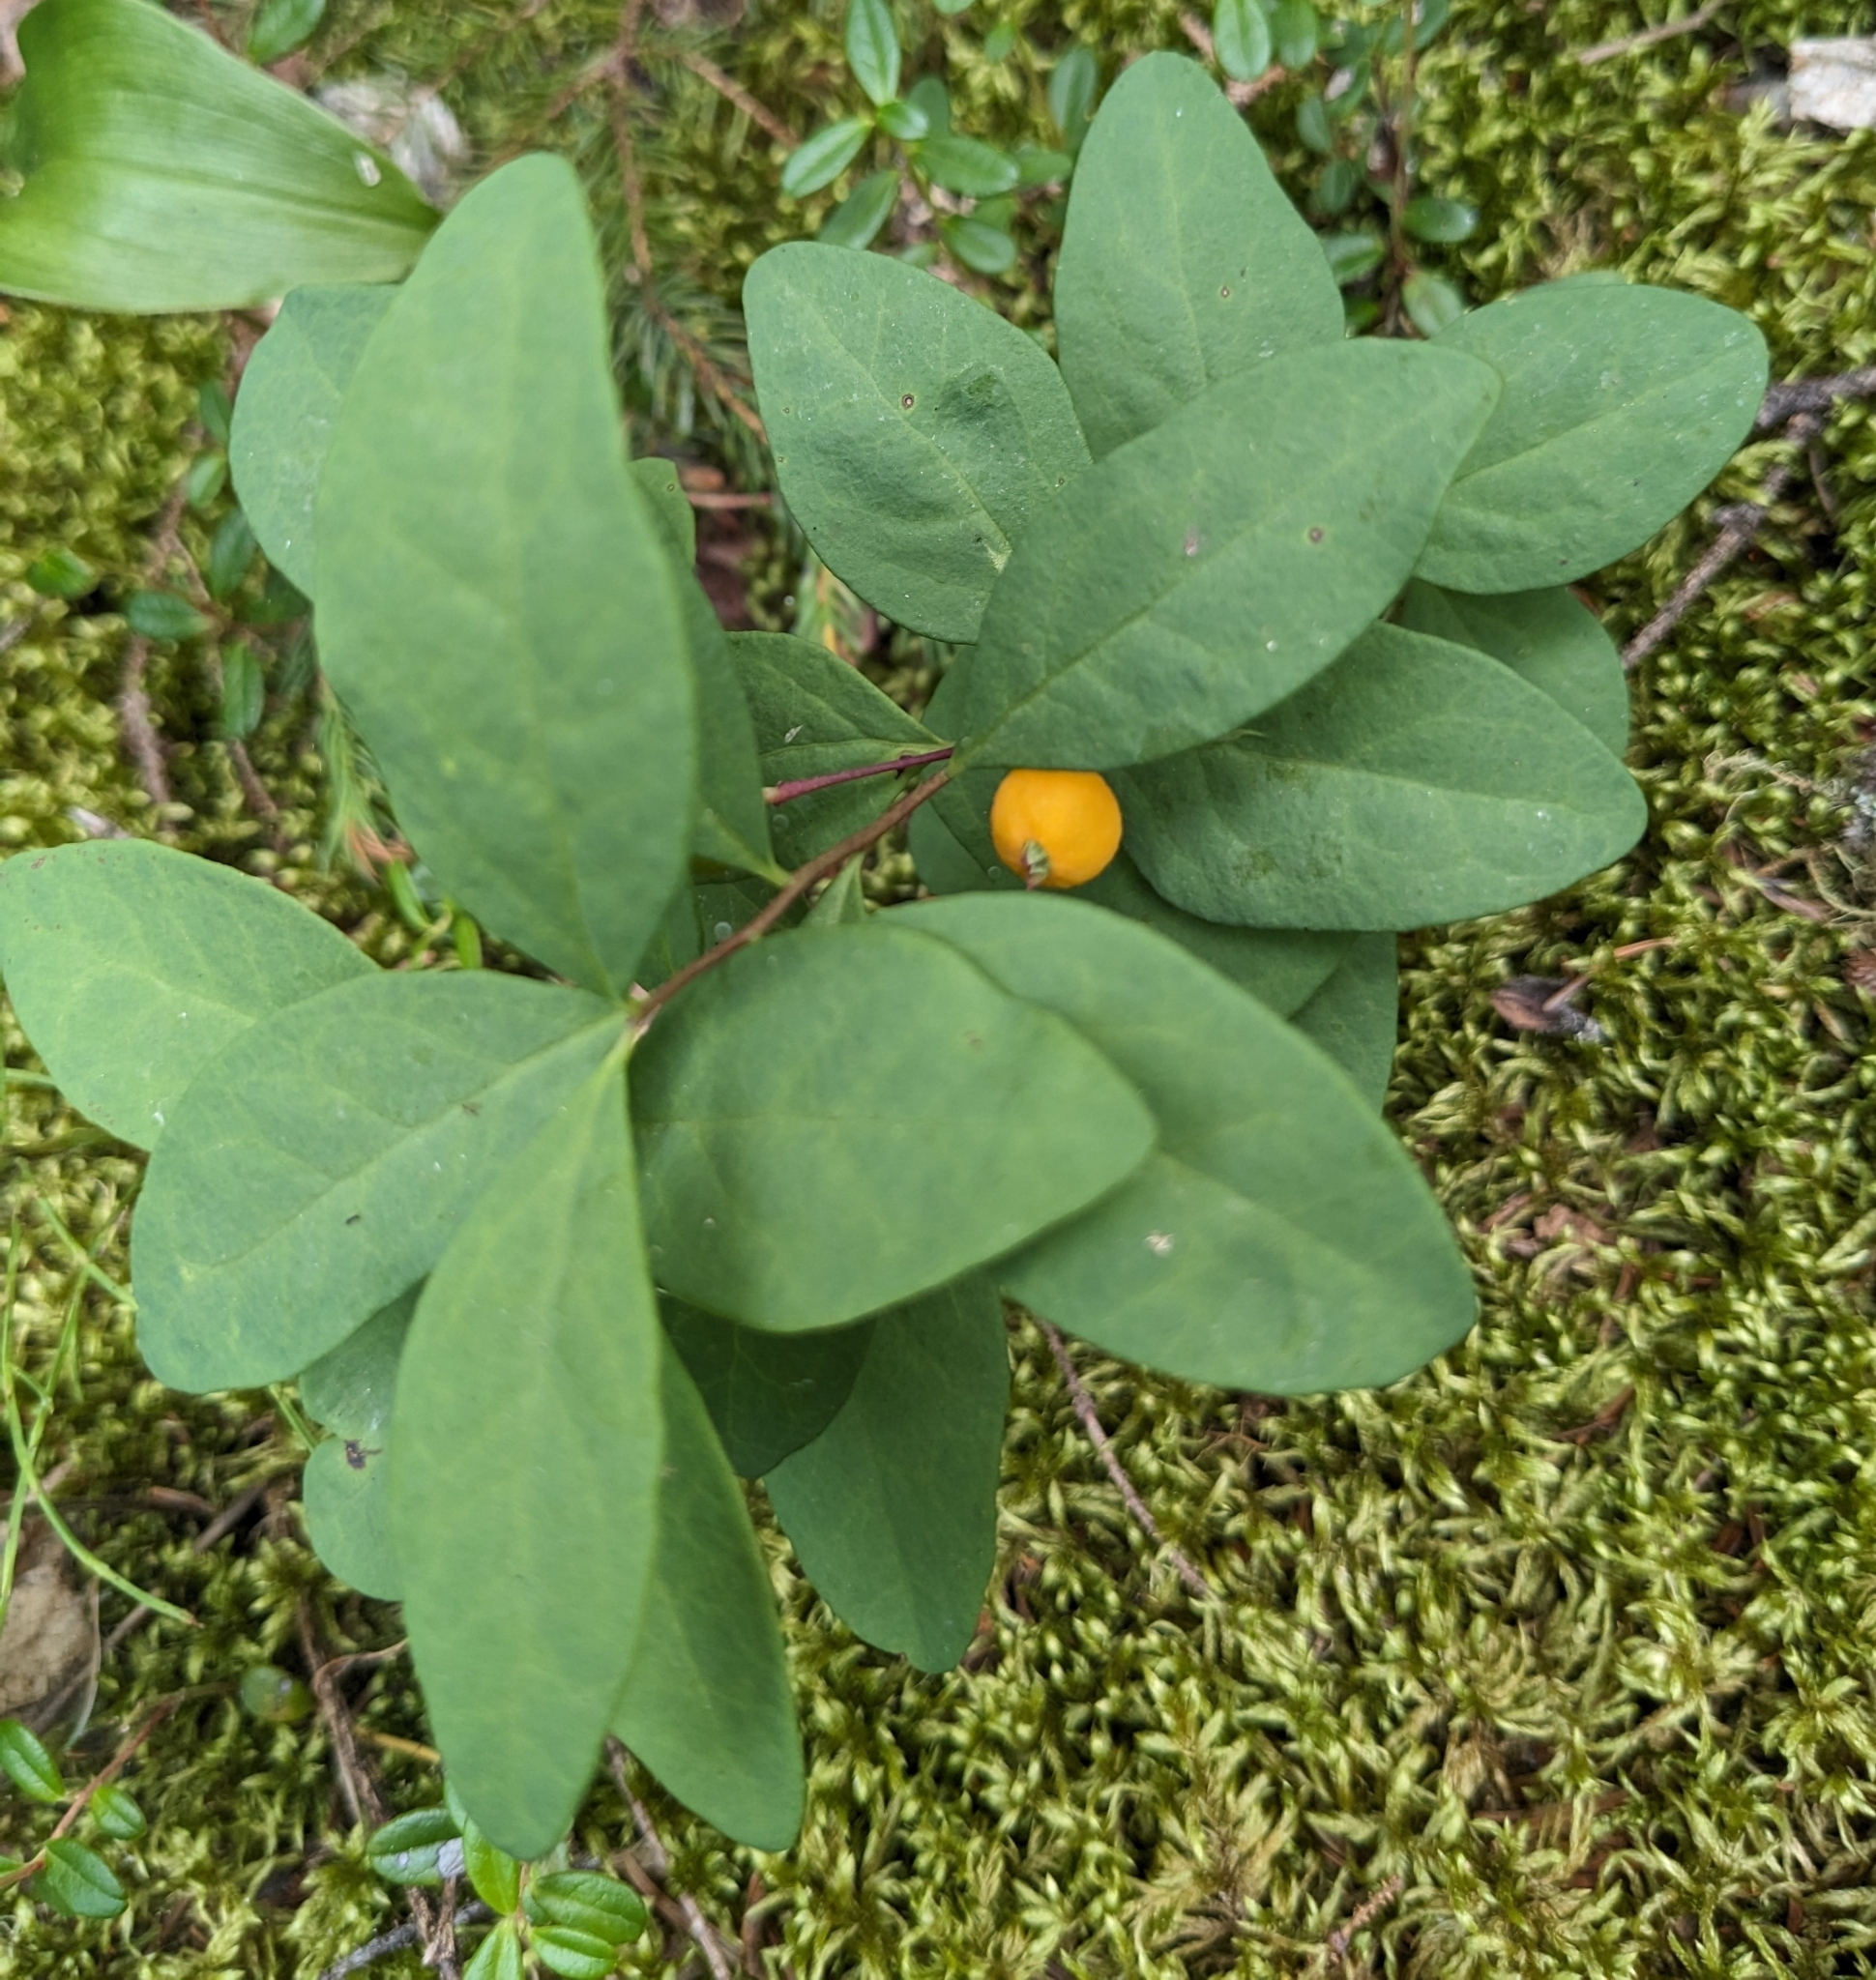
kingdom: Plantae
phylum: Tracheophyta
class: Magnoliopsida
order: Santalales
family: Comandraceae
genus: Geocaulon
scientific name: Geocaulon lividum
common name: Earthberry
